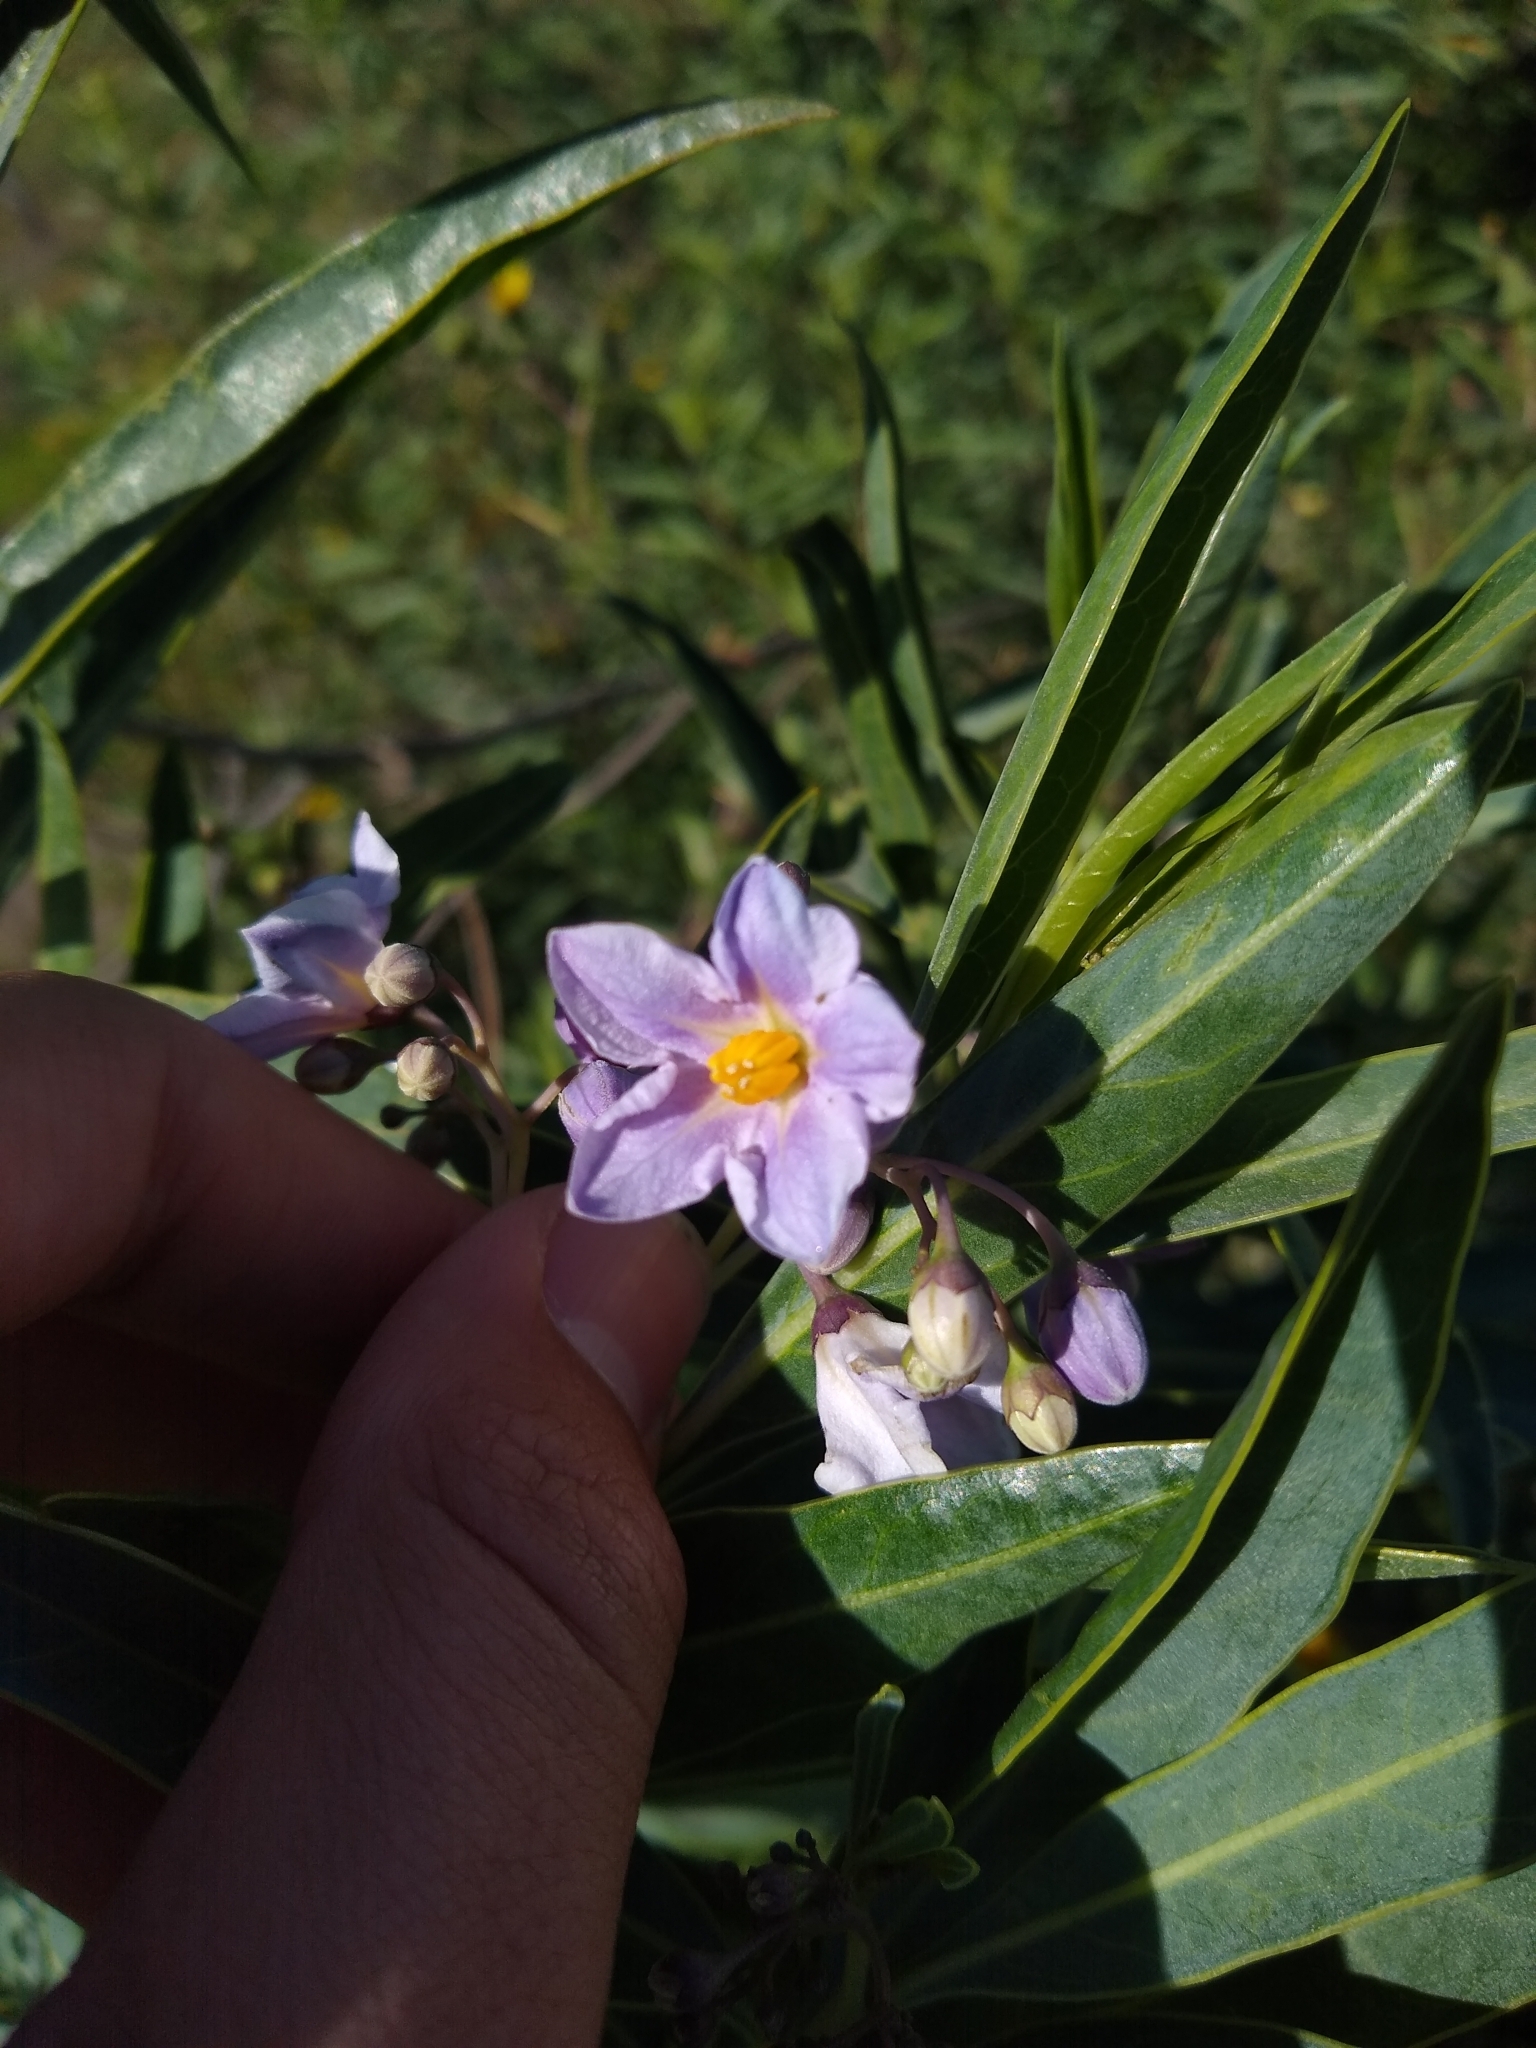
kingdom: Plantae
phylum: Tracheophyta
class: Magnoliopsida
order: Solanales
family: Solanaceae
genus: Solanum
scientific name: Solanum glaucophyllum
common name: Waxyleaf nightshade
